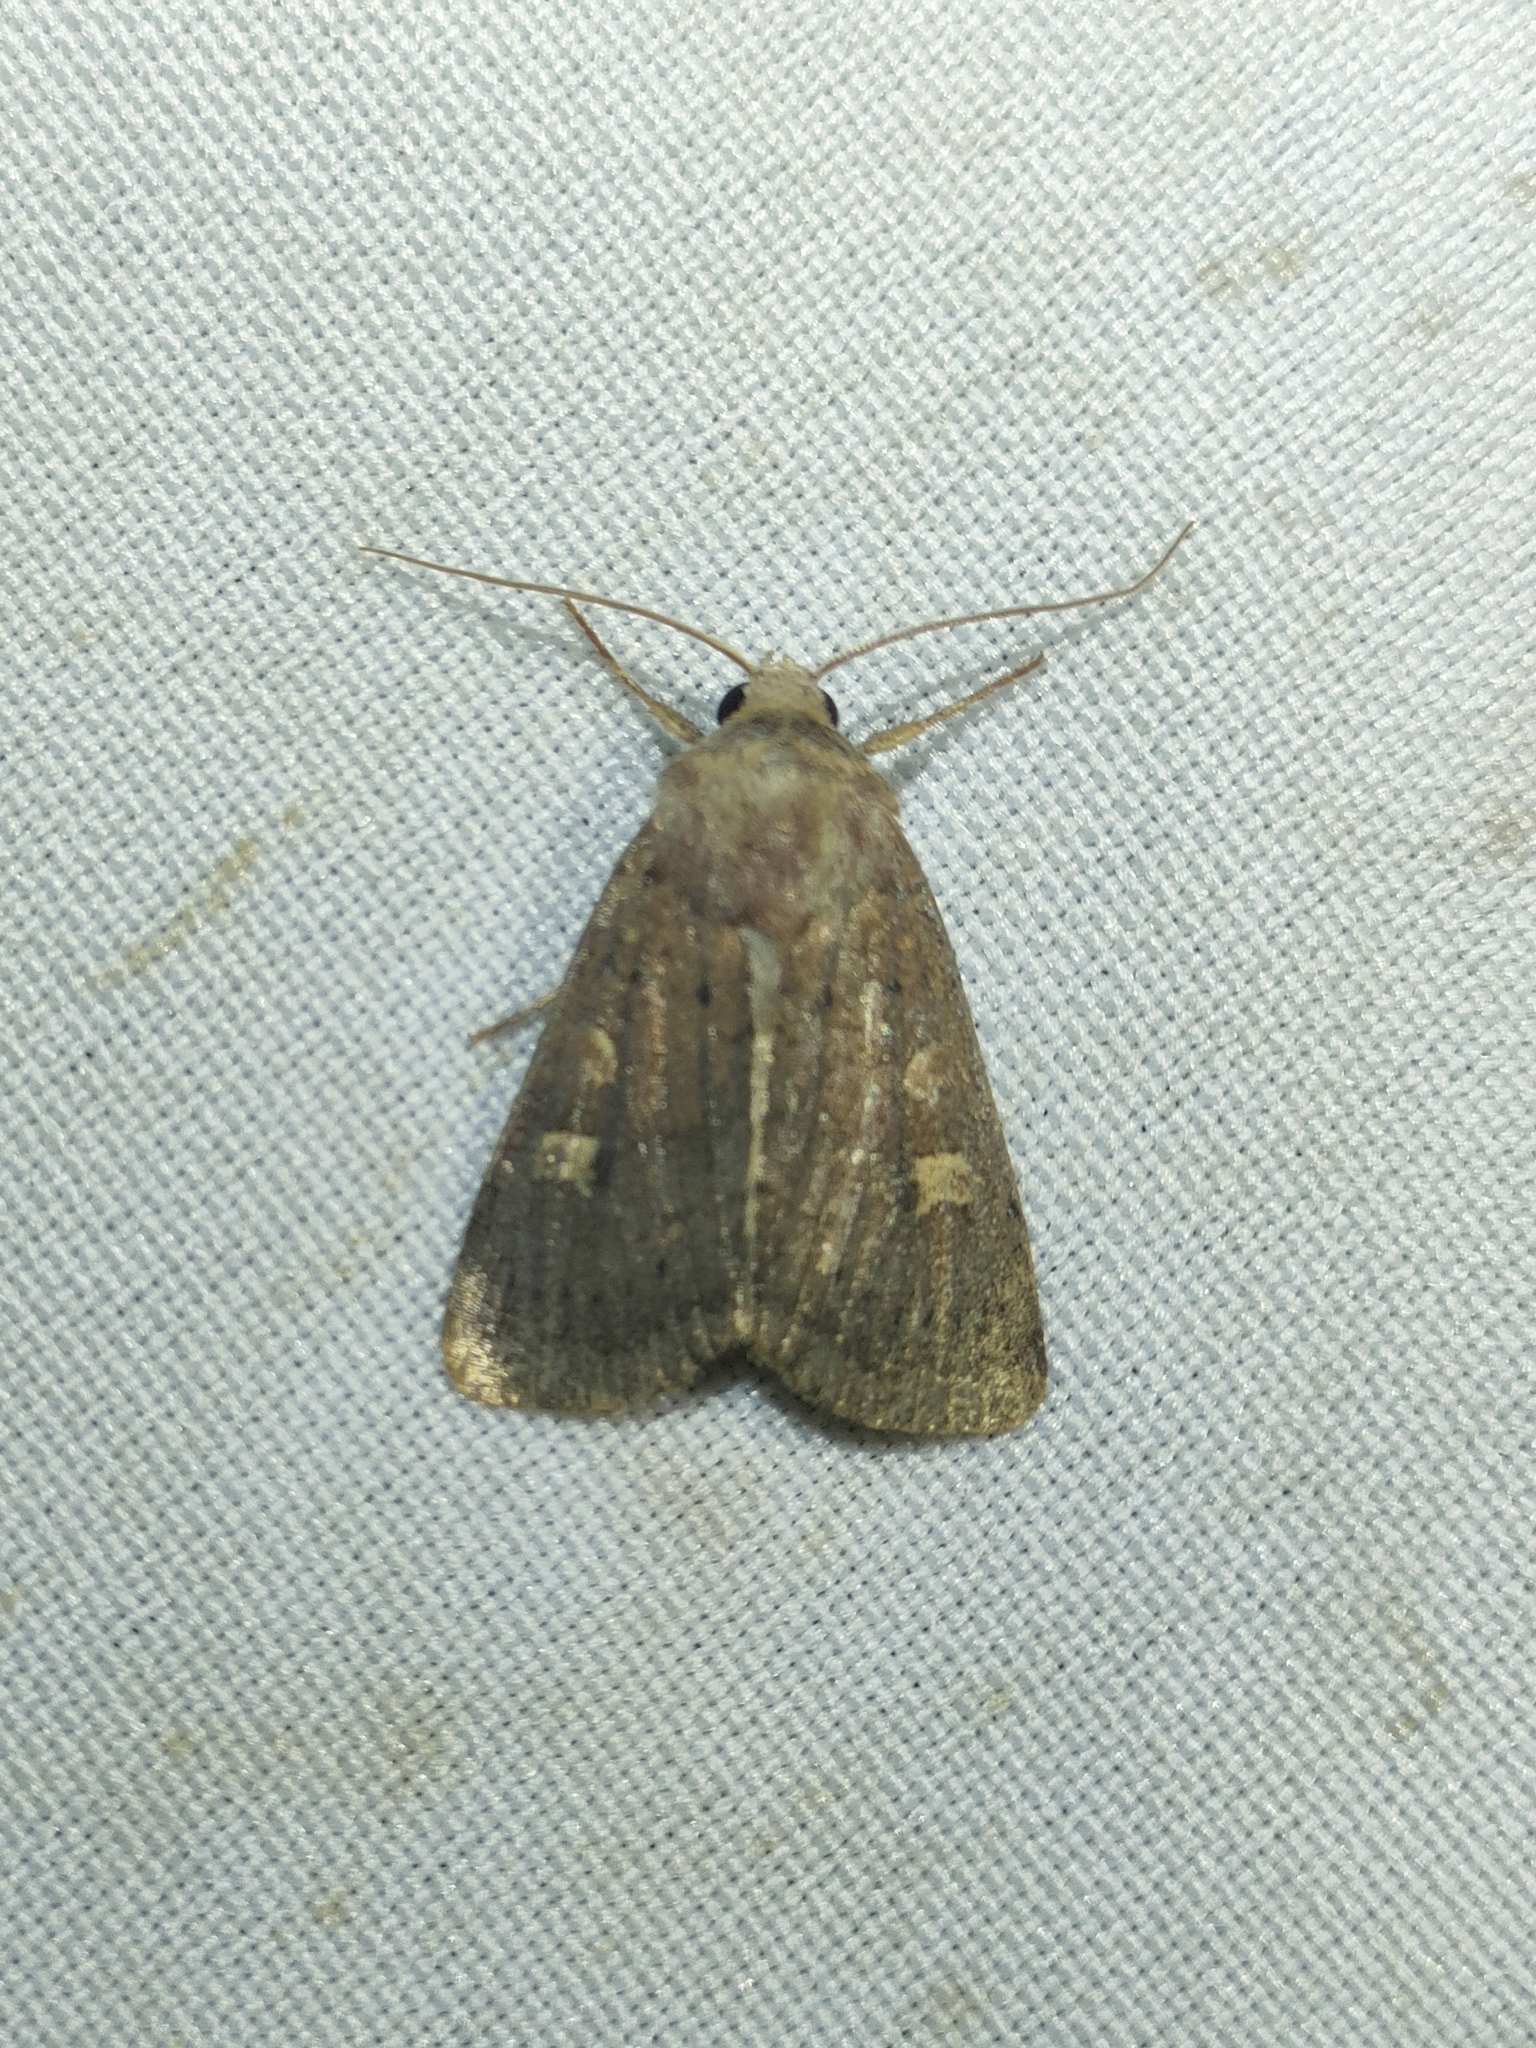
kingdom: Animalia
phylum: Arthropoda
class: Insecta
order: Lepidoptera
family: Noctuidae
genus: Xestia
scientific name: Xestia xanthographa
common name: Square-spot rustic
